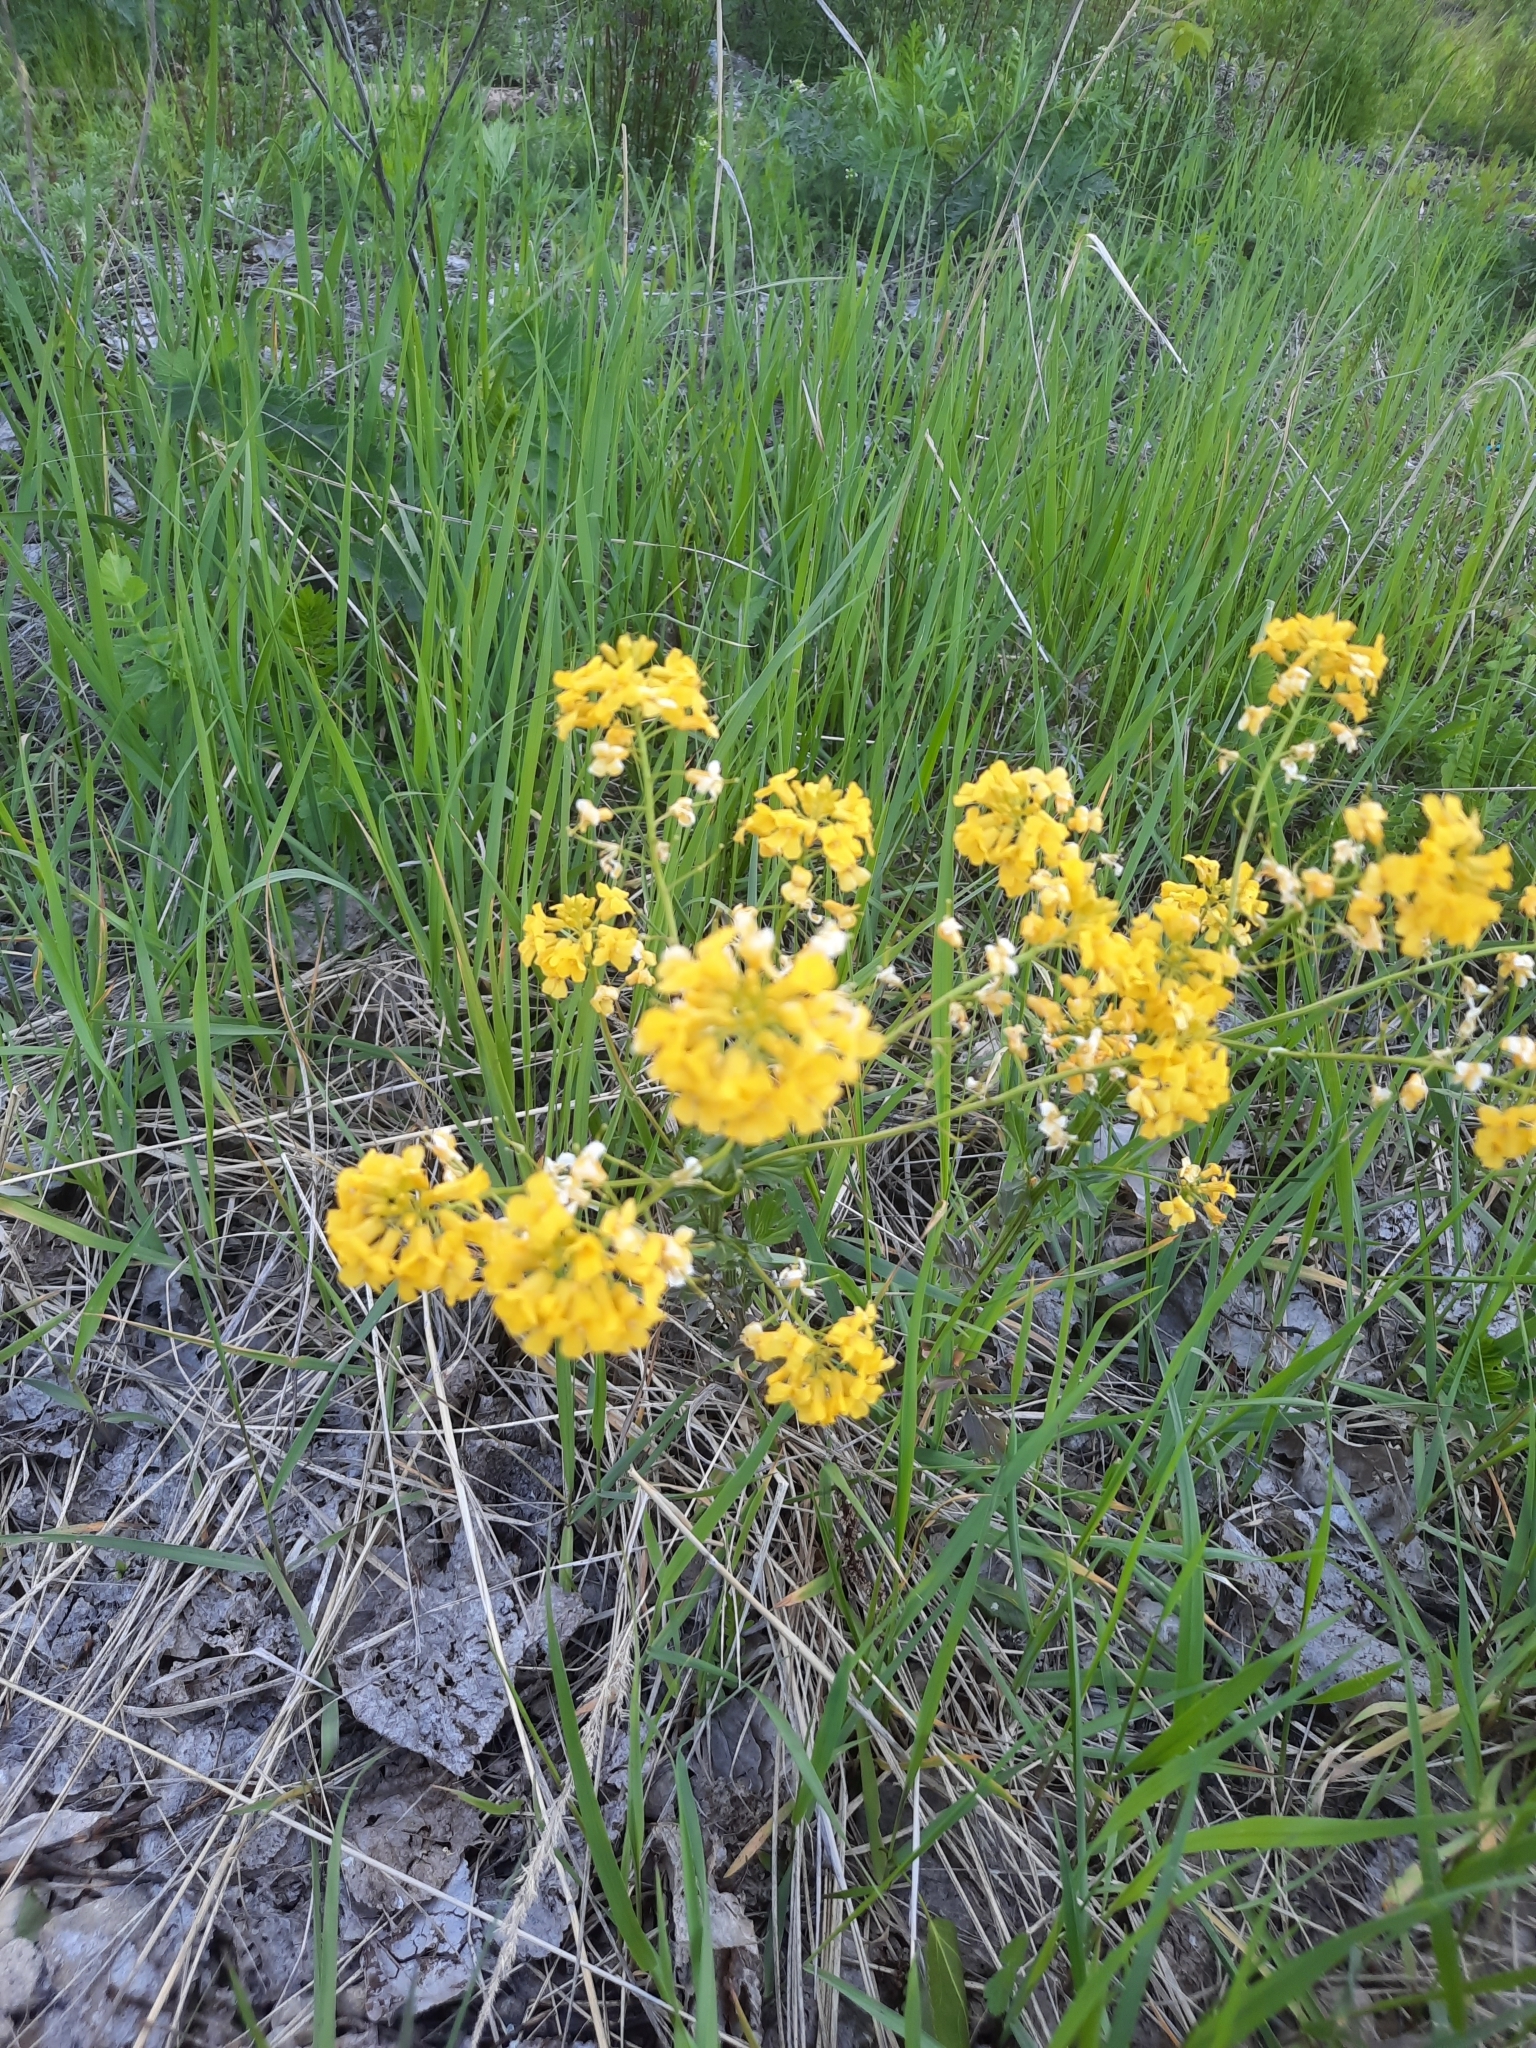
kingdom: Plantae
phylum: Tracheophyta
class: Magnoliopsida
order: Brassicales
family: Brassicaceae
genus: Barbarea
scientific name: Barbarea vulgaris
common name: Cressy-greens
